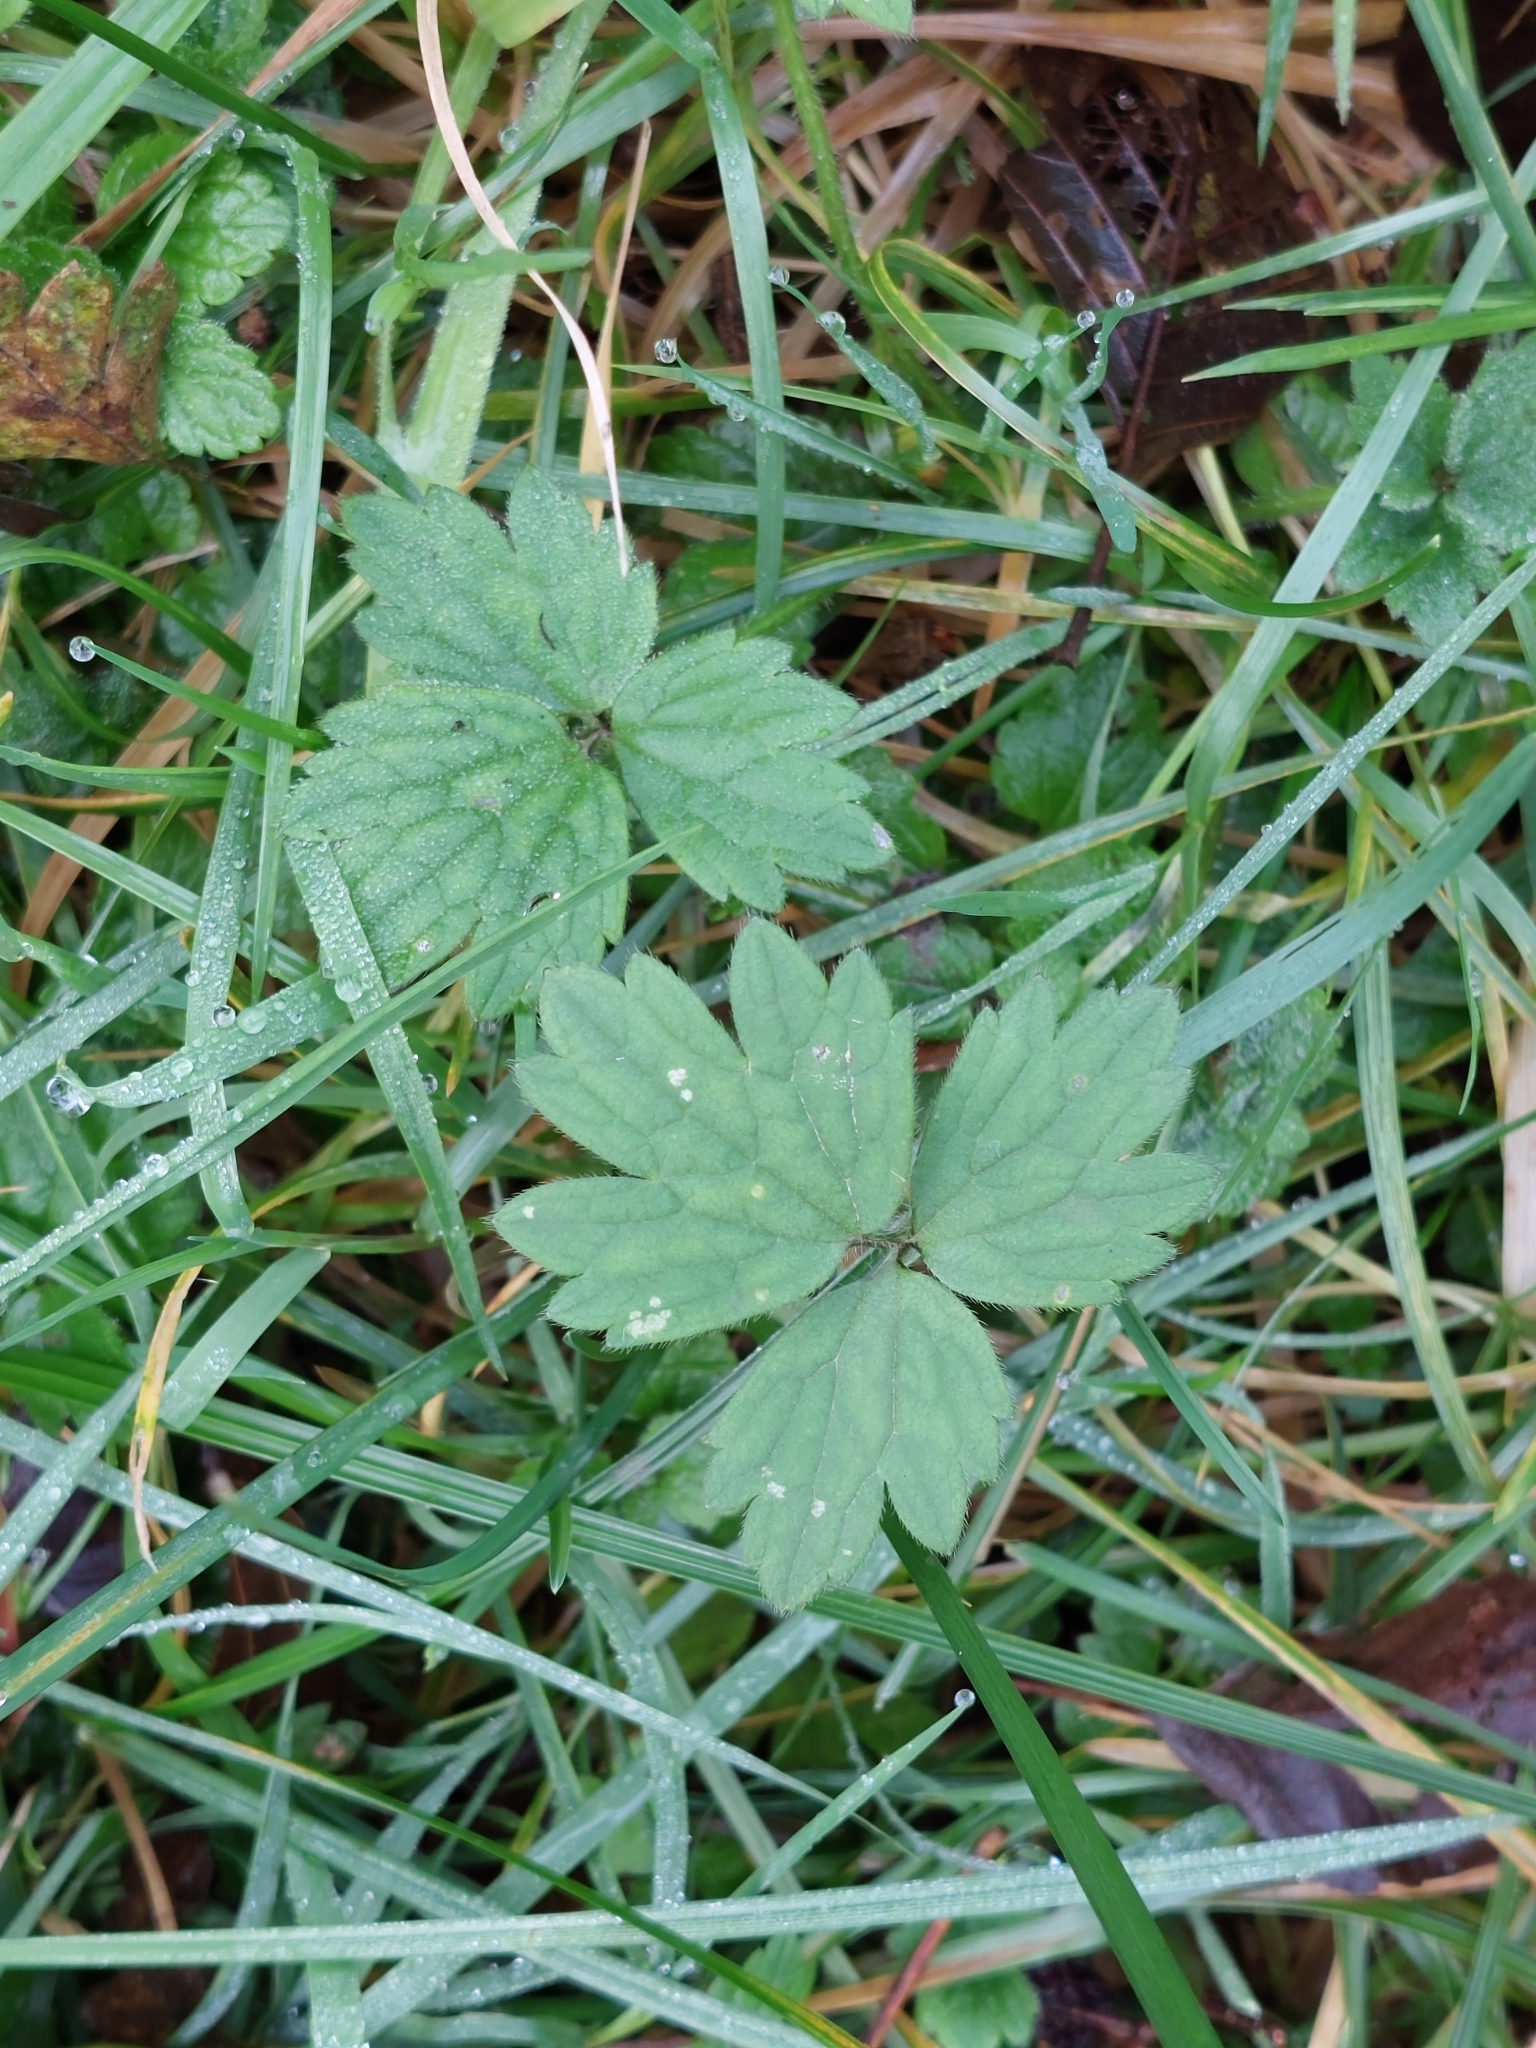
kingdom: Plantae
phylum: Tracheophyta
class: Magnoliopsida
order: Ranunculales
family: Ranunculaceae
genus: Ranunculus
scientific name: Ranunculus repens
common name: Creeping buttercup
